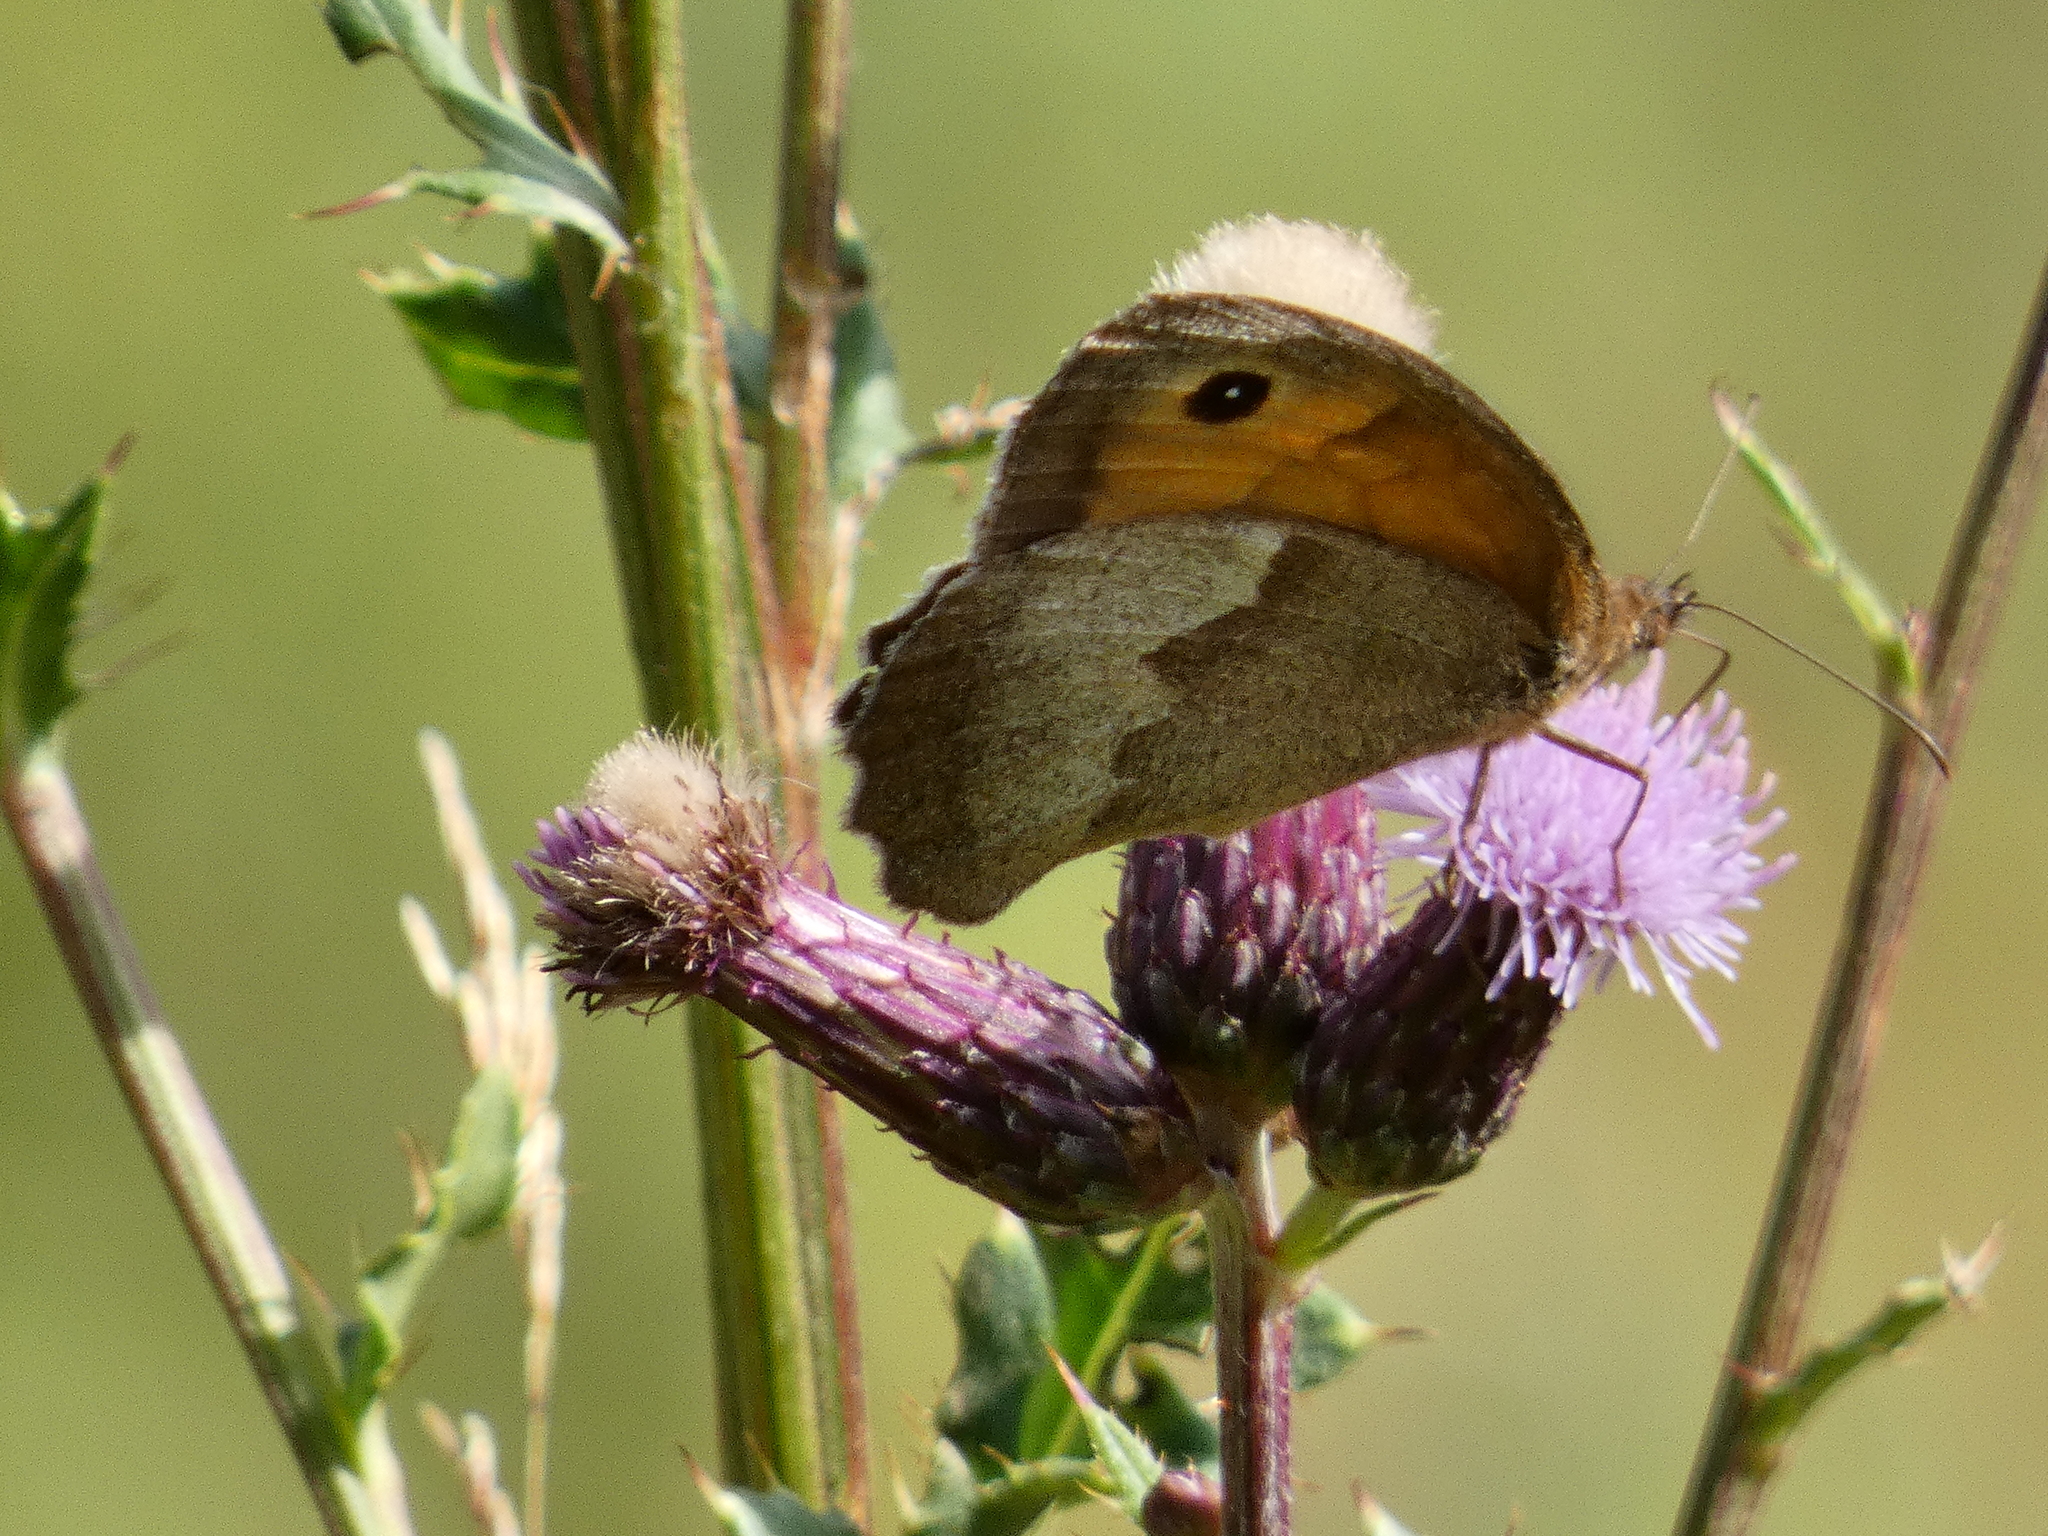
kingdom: Animalia
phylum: Arthropoda
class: Insecta
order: Lepidoptera
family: Nymphalidae
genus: Maniola
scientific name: Maniola jurtina
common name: Meadow brown
